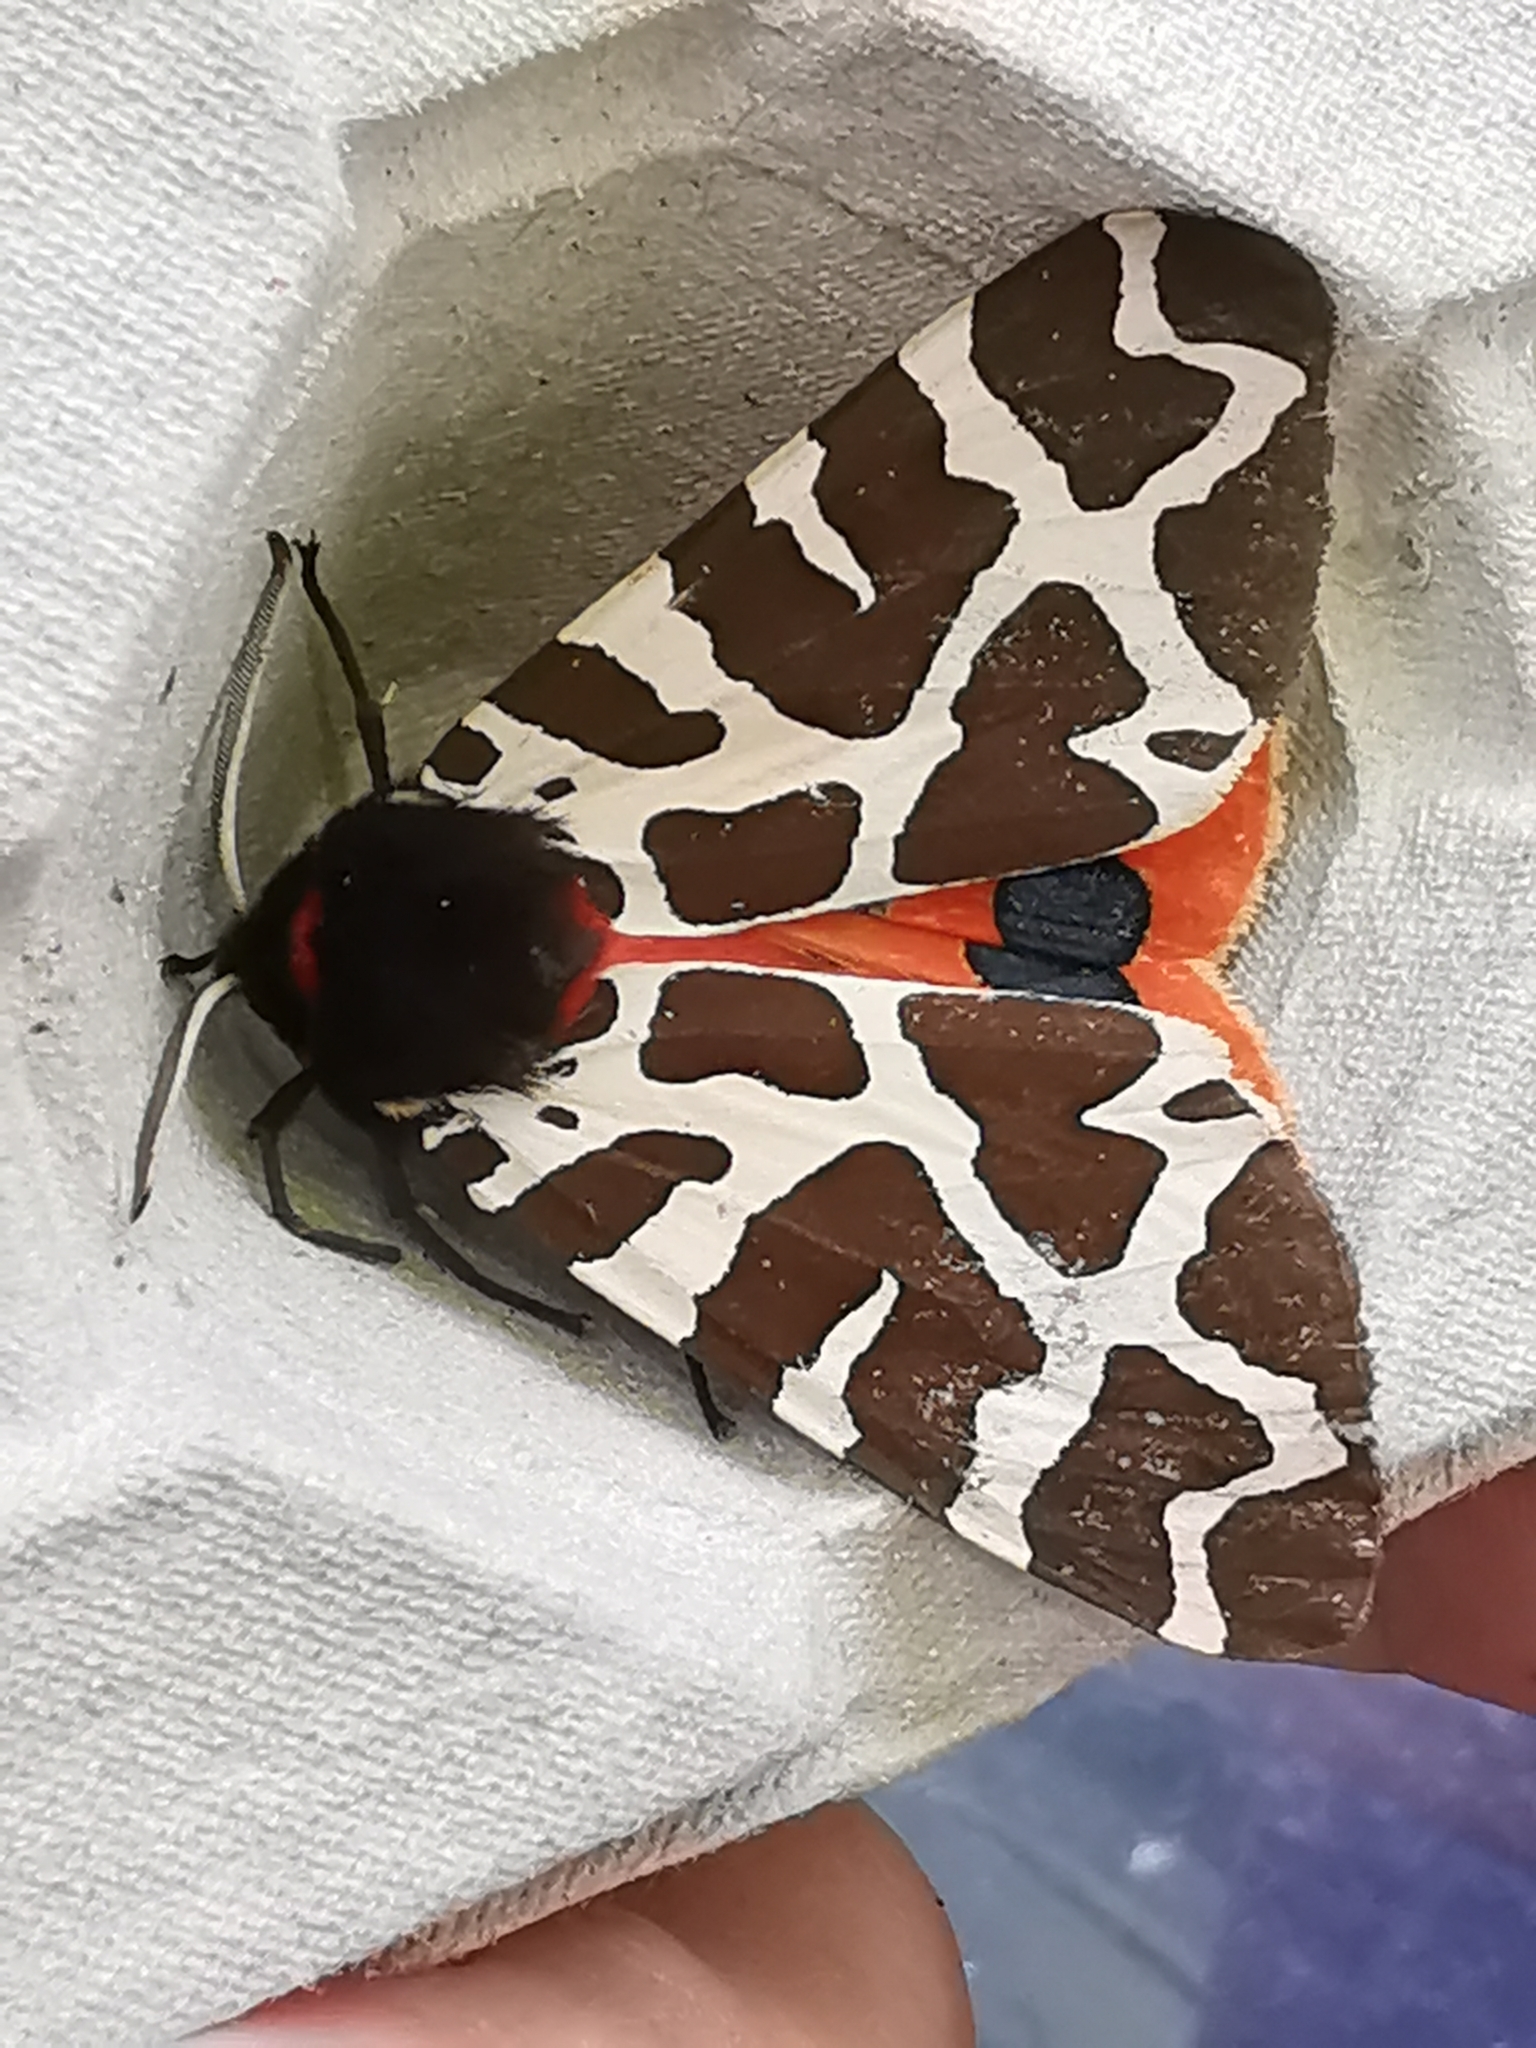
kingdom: Animalia
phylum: Arthropoda
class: Insecta
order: Lepidoptera
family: Erebidae
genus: Arctia
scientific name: Arctia caja
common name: Garden tiger
